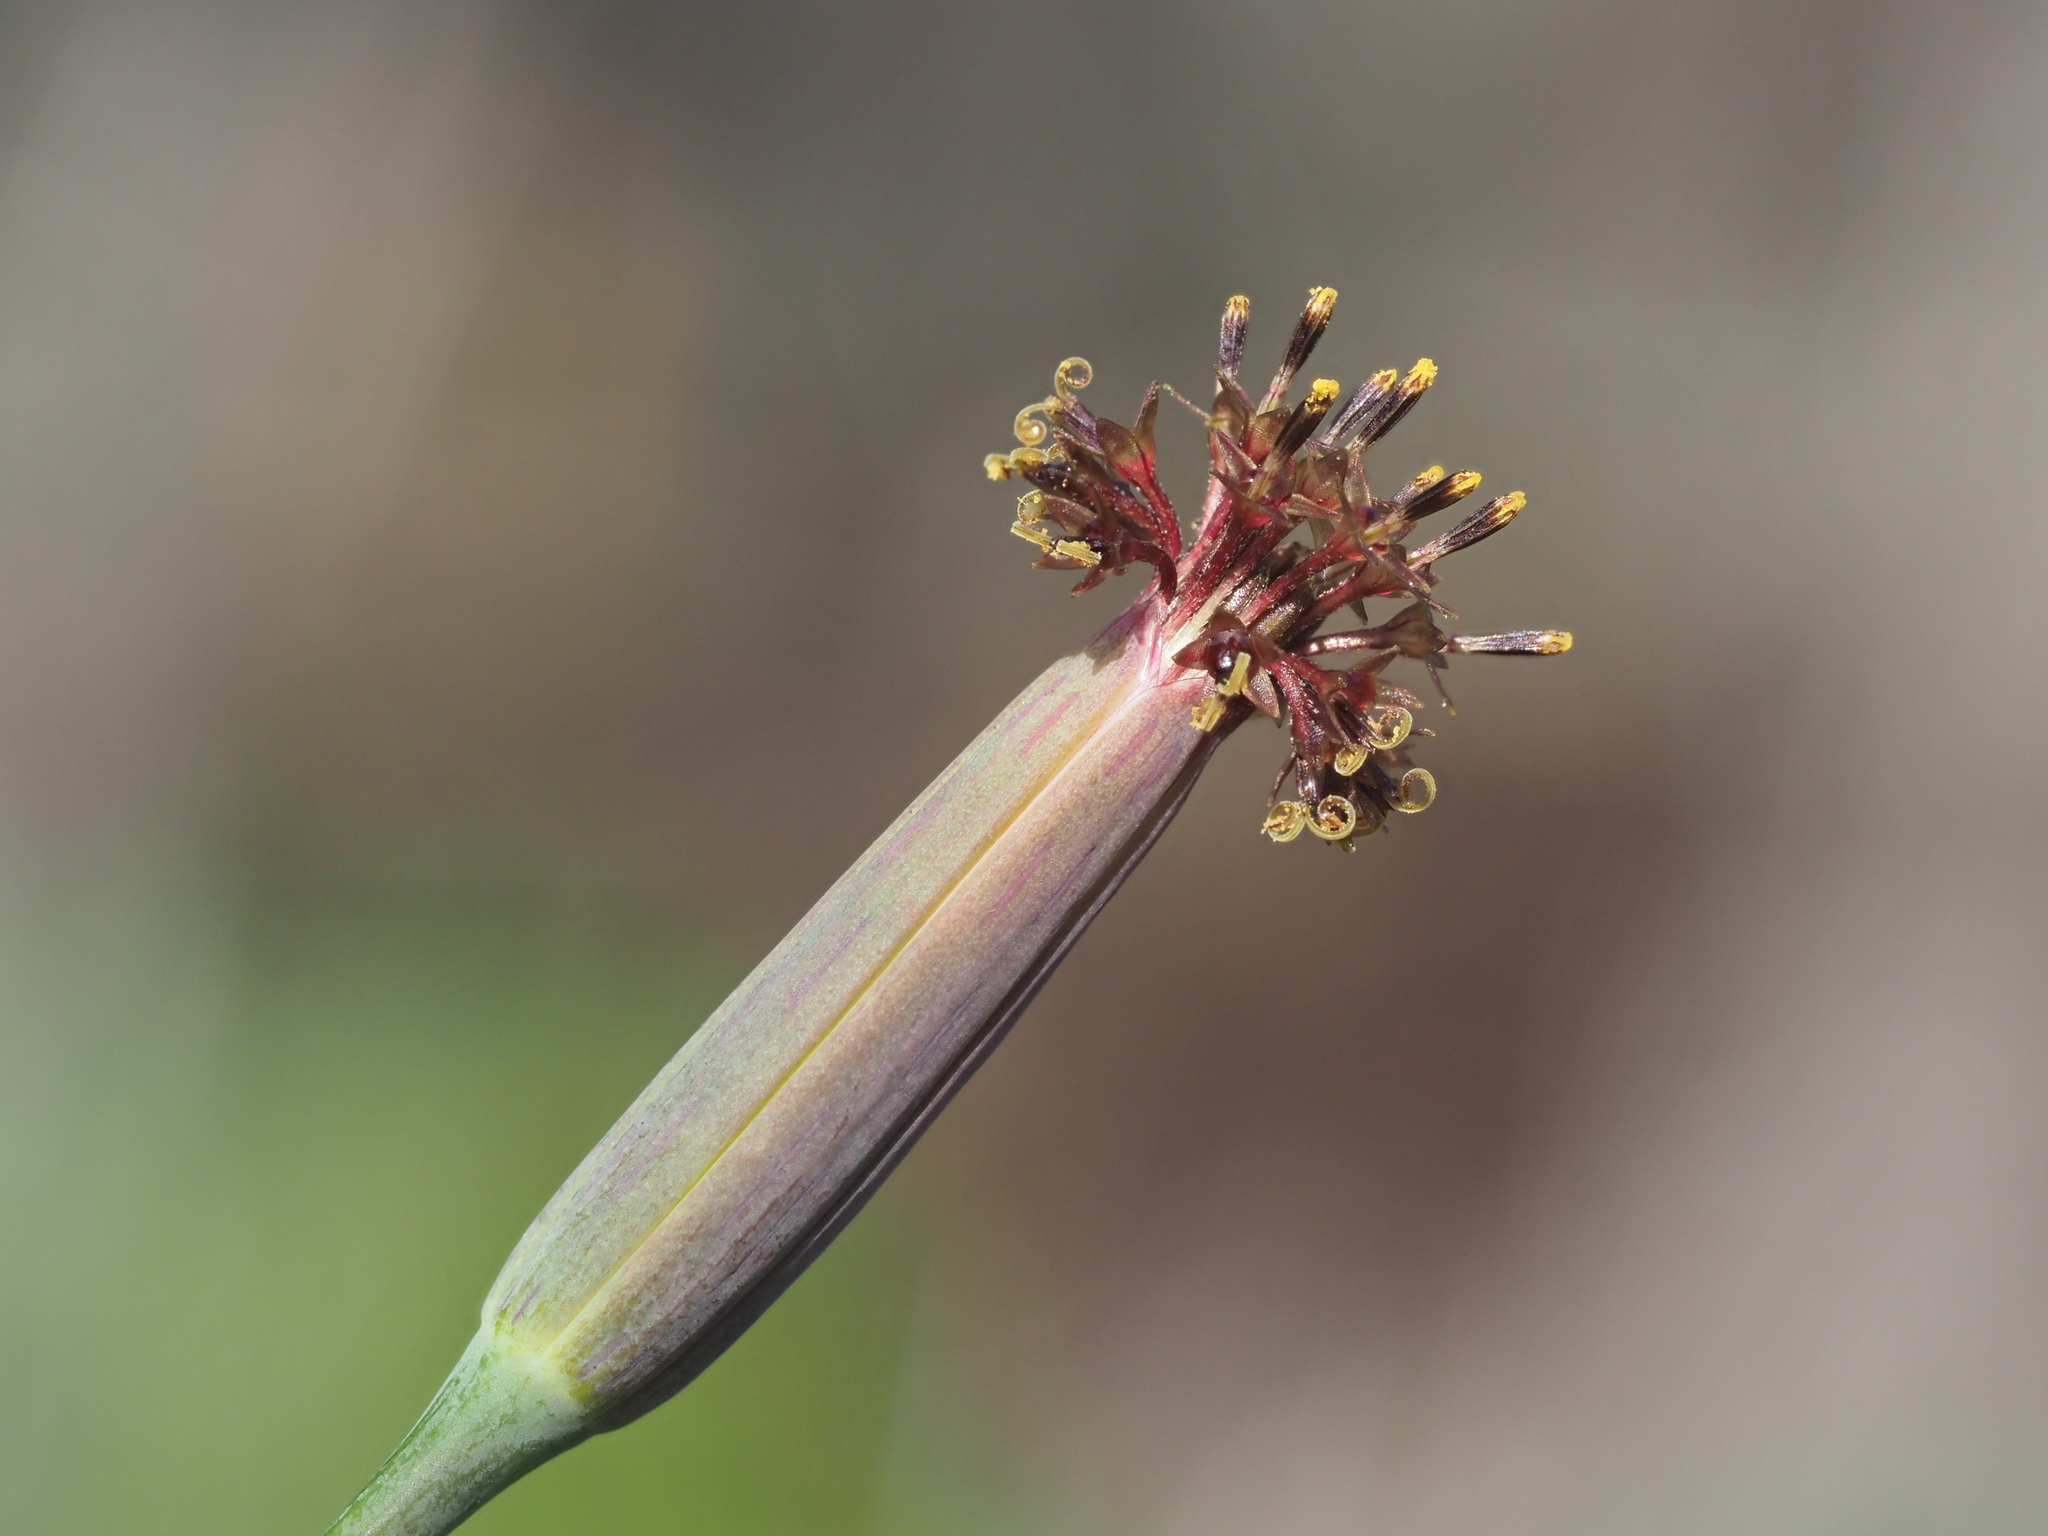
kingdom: Plantae
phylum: Tracheophyta
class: Magnoliopsida
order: Asterales
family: Asteraceae
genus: Porophyllum
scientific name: Porophyllum ruderale
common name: Yerba porosa
